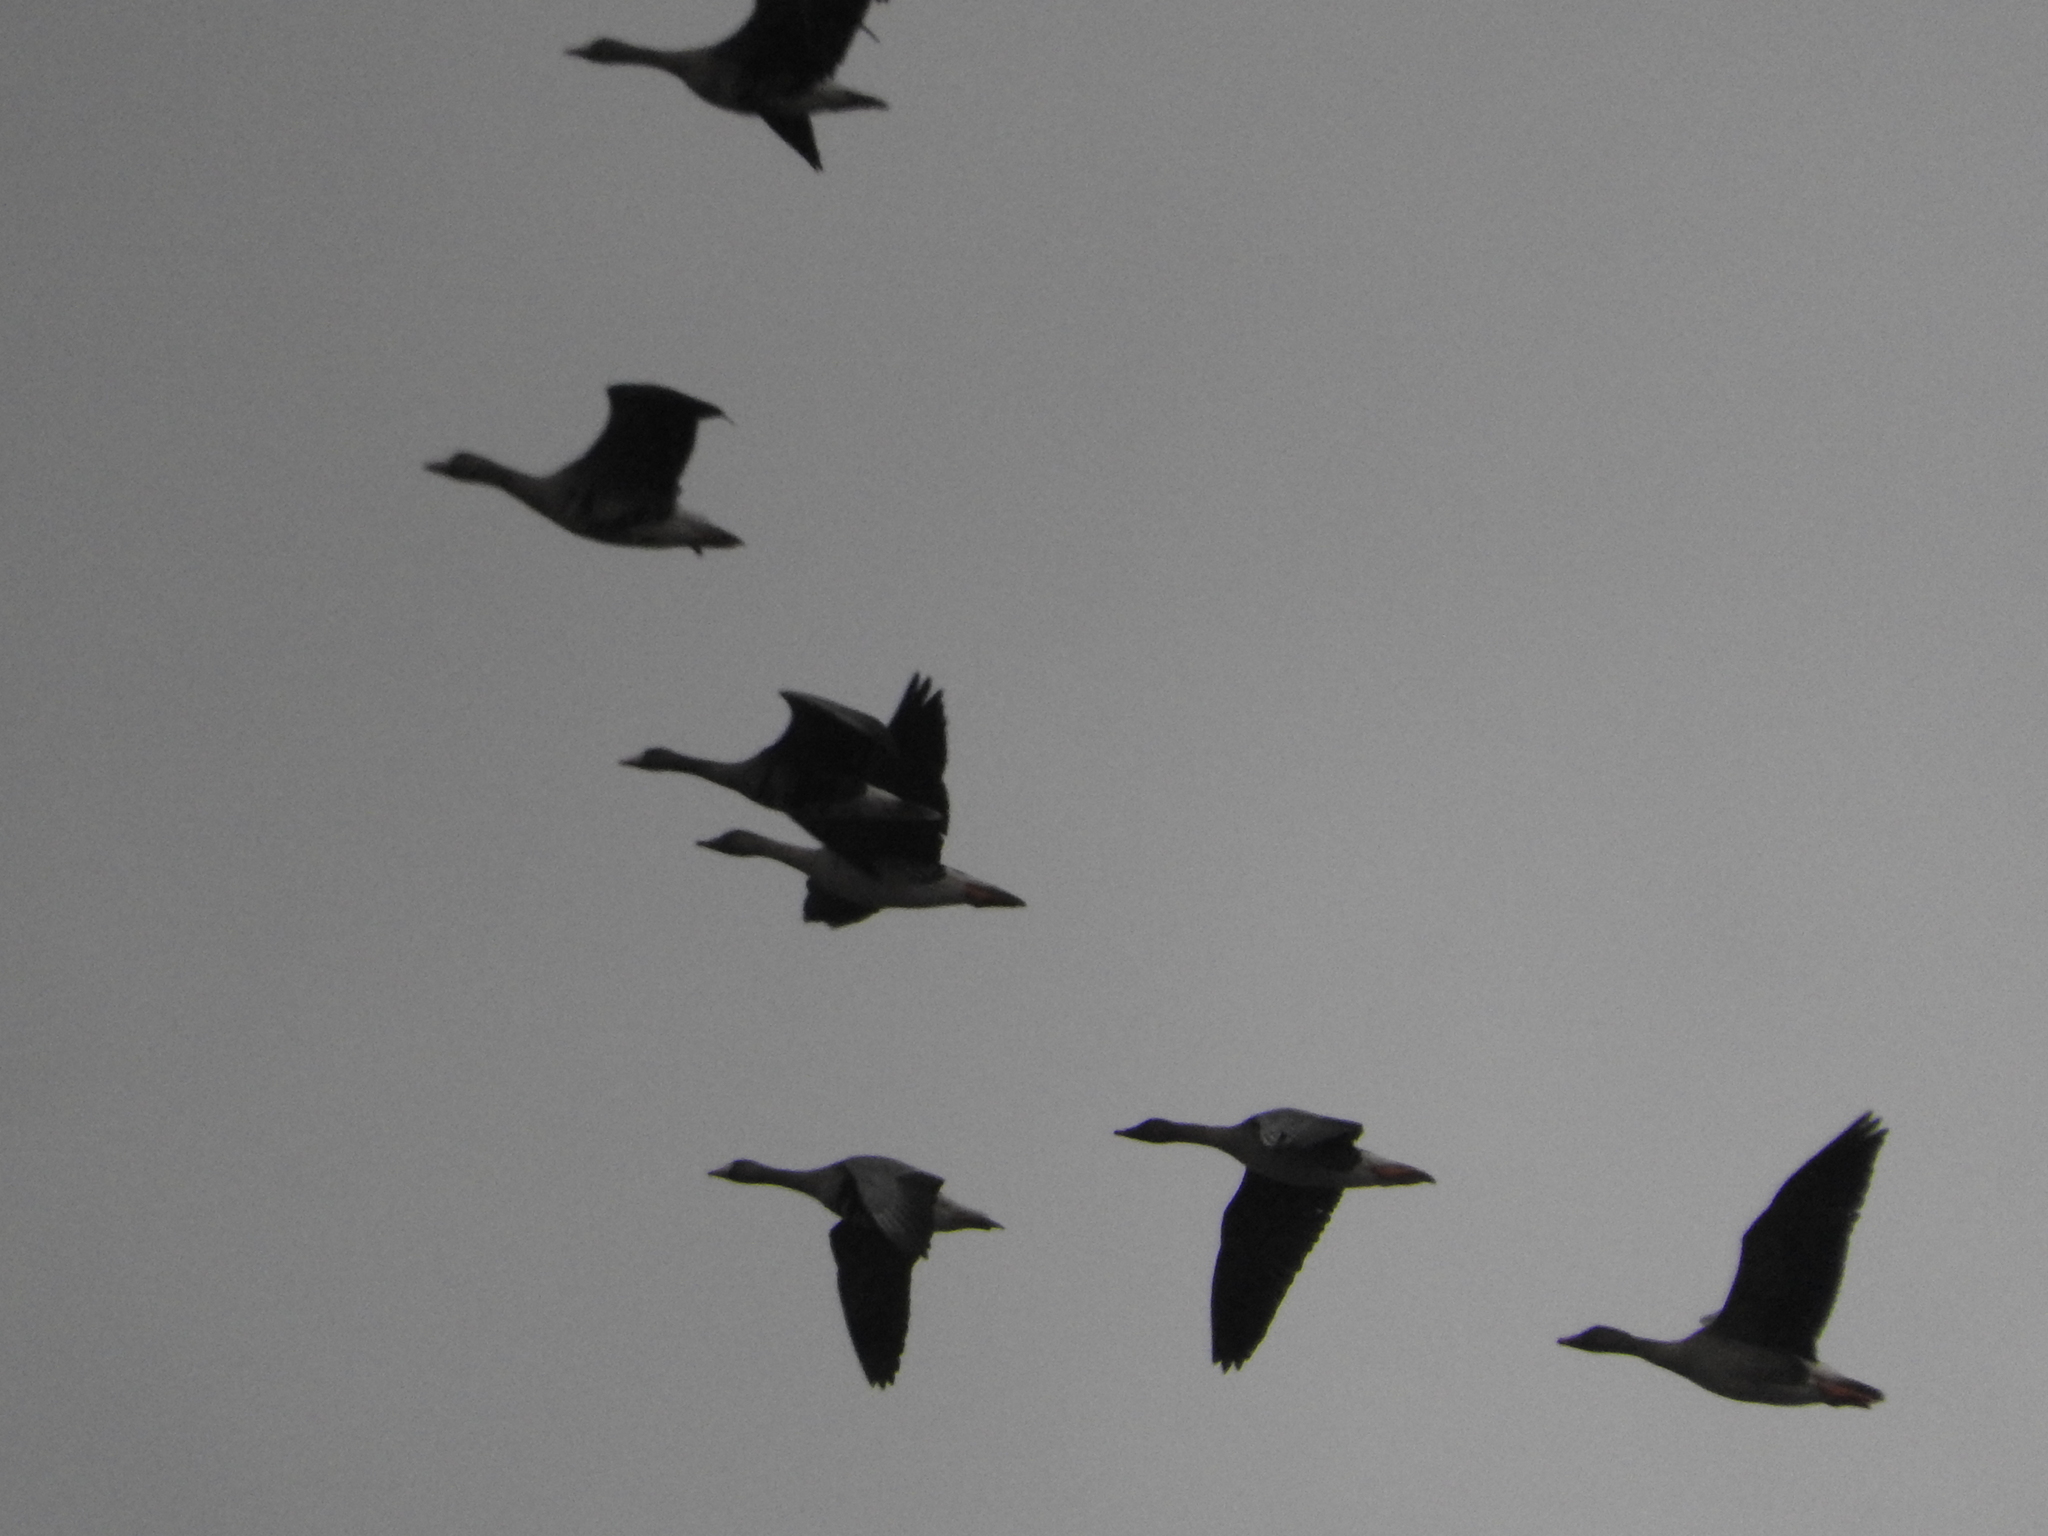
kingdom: Animalia
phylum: Chordata
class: Aves
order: Anseriformes
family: Anatidae
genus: Anser
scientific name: Anser albifrons
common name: Greater white-fronted goose
